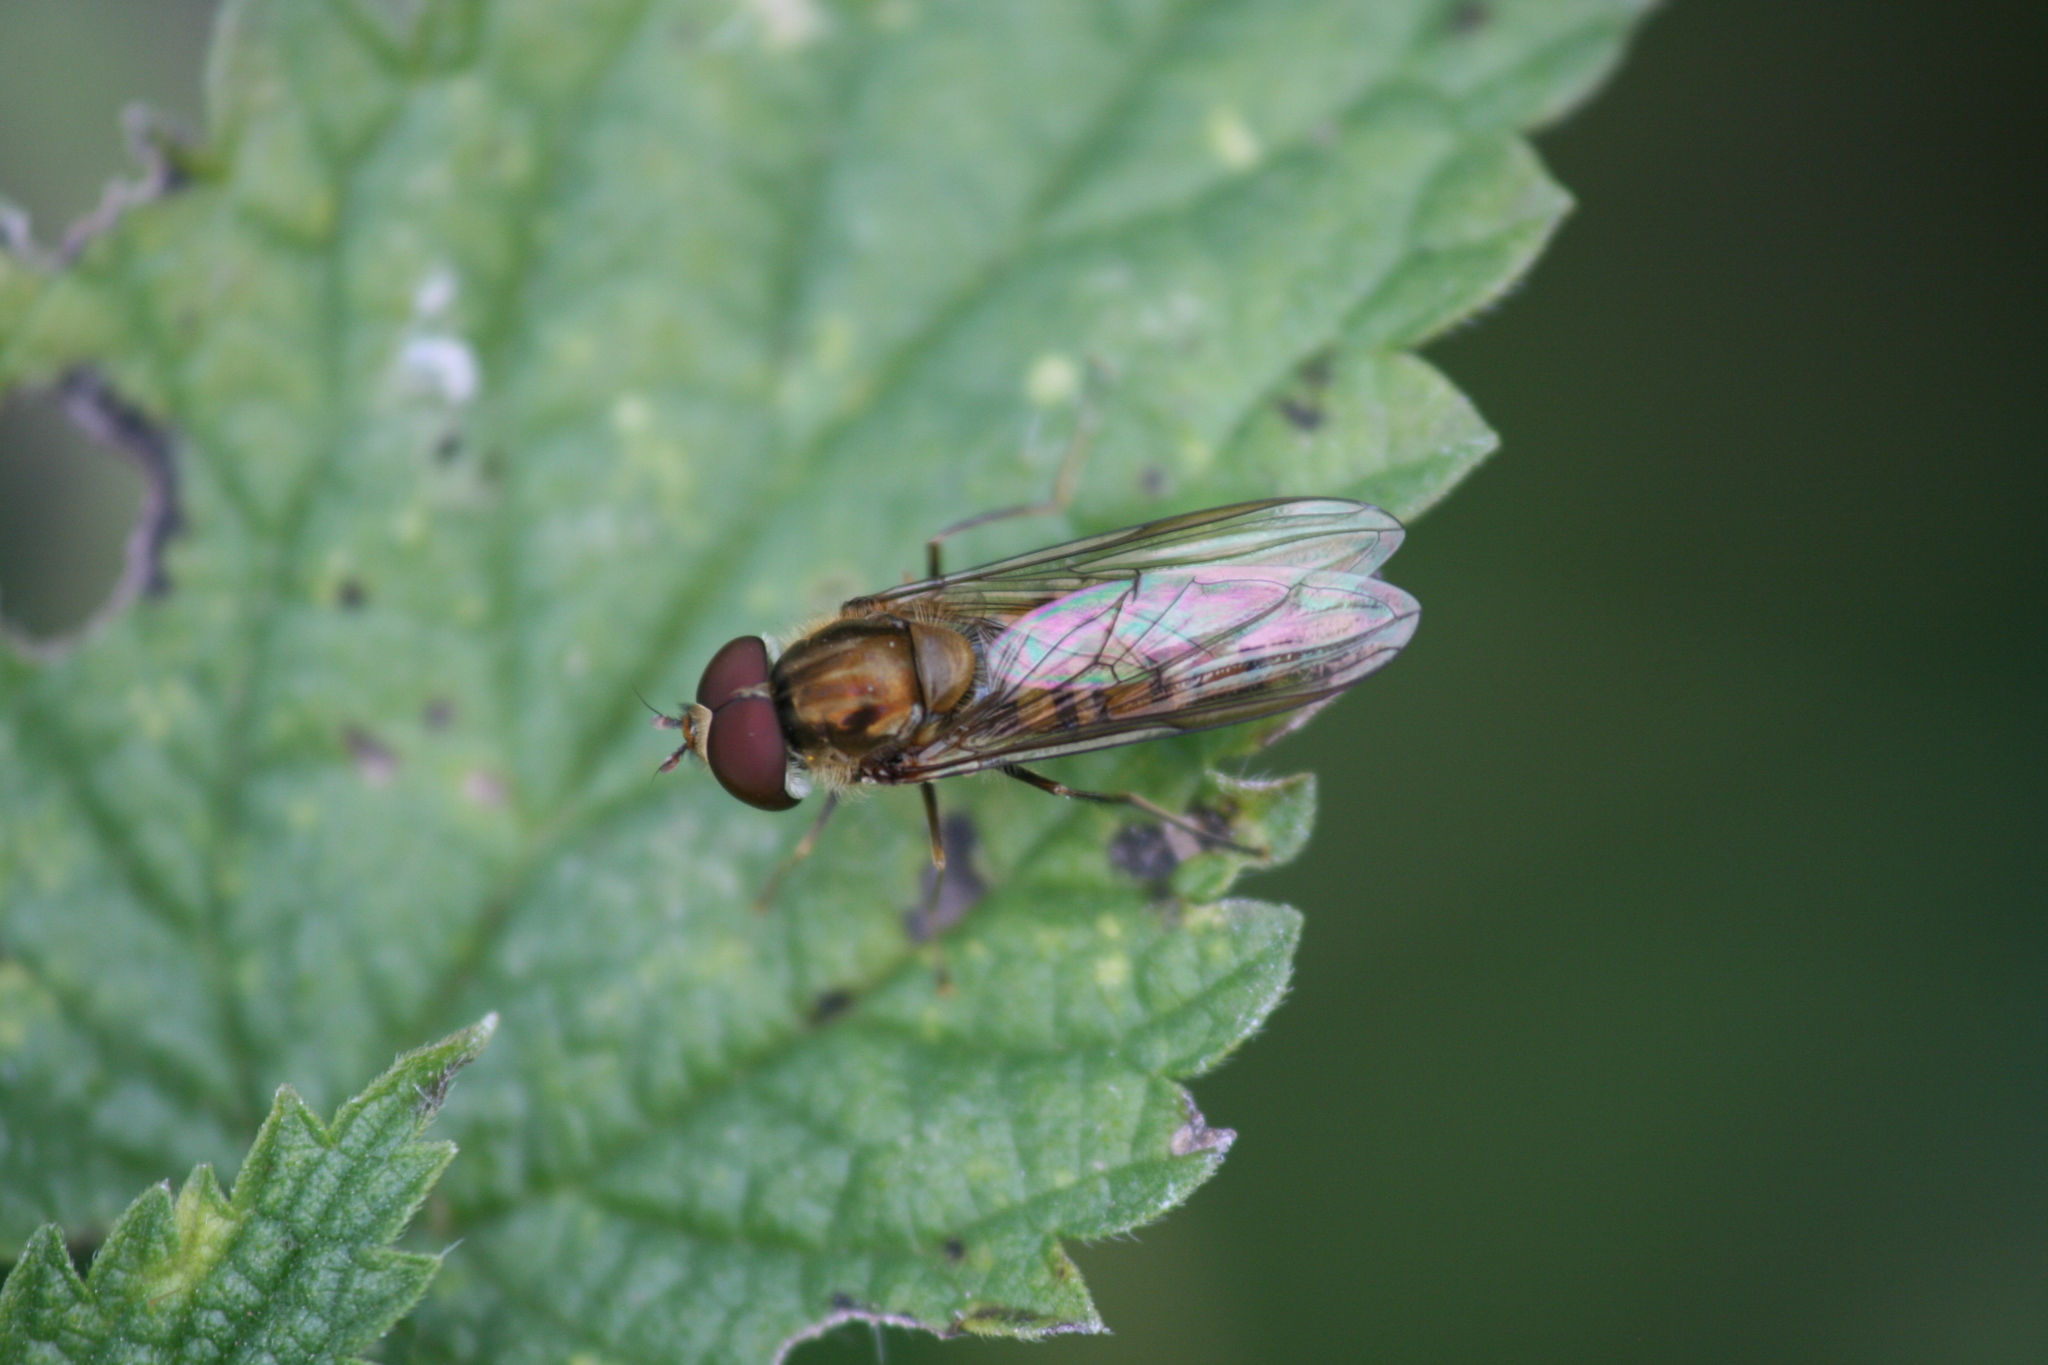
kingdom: Animalia
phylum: Arthropoda
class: Insecta
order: Diptera
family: Syrphidae
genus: Episyrphus
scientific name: Episyrphus balteatus
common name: Marmalade hoverfly
